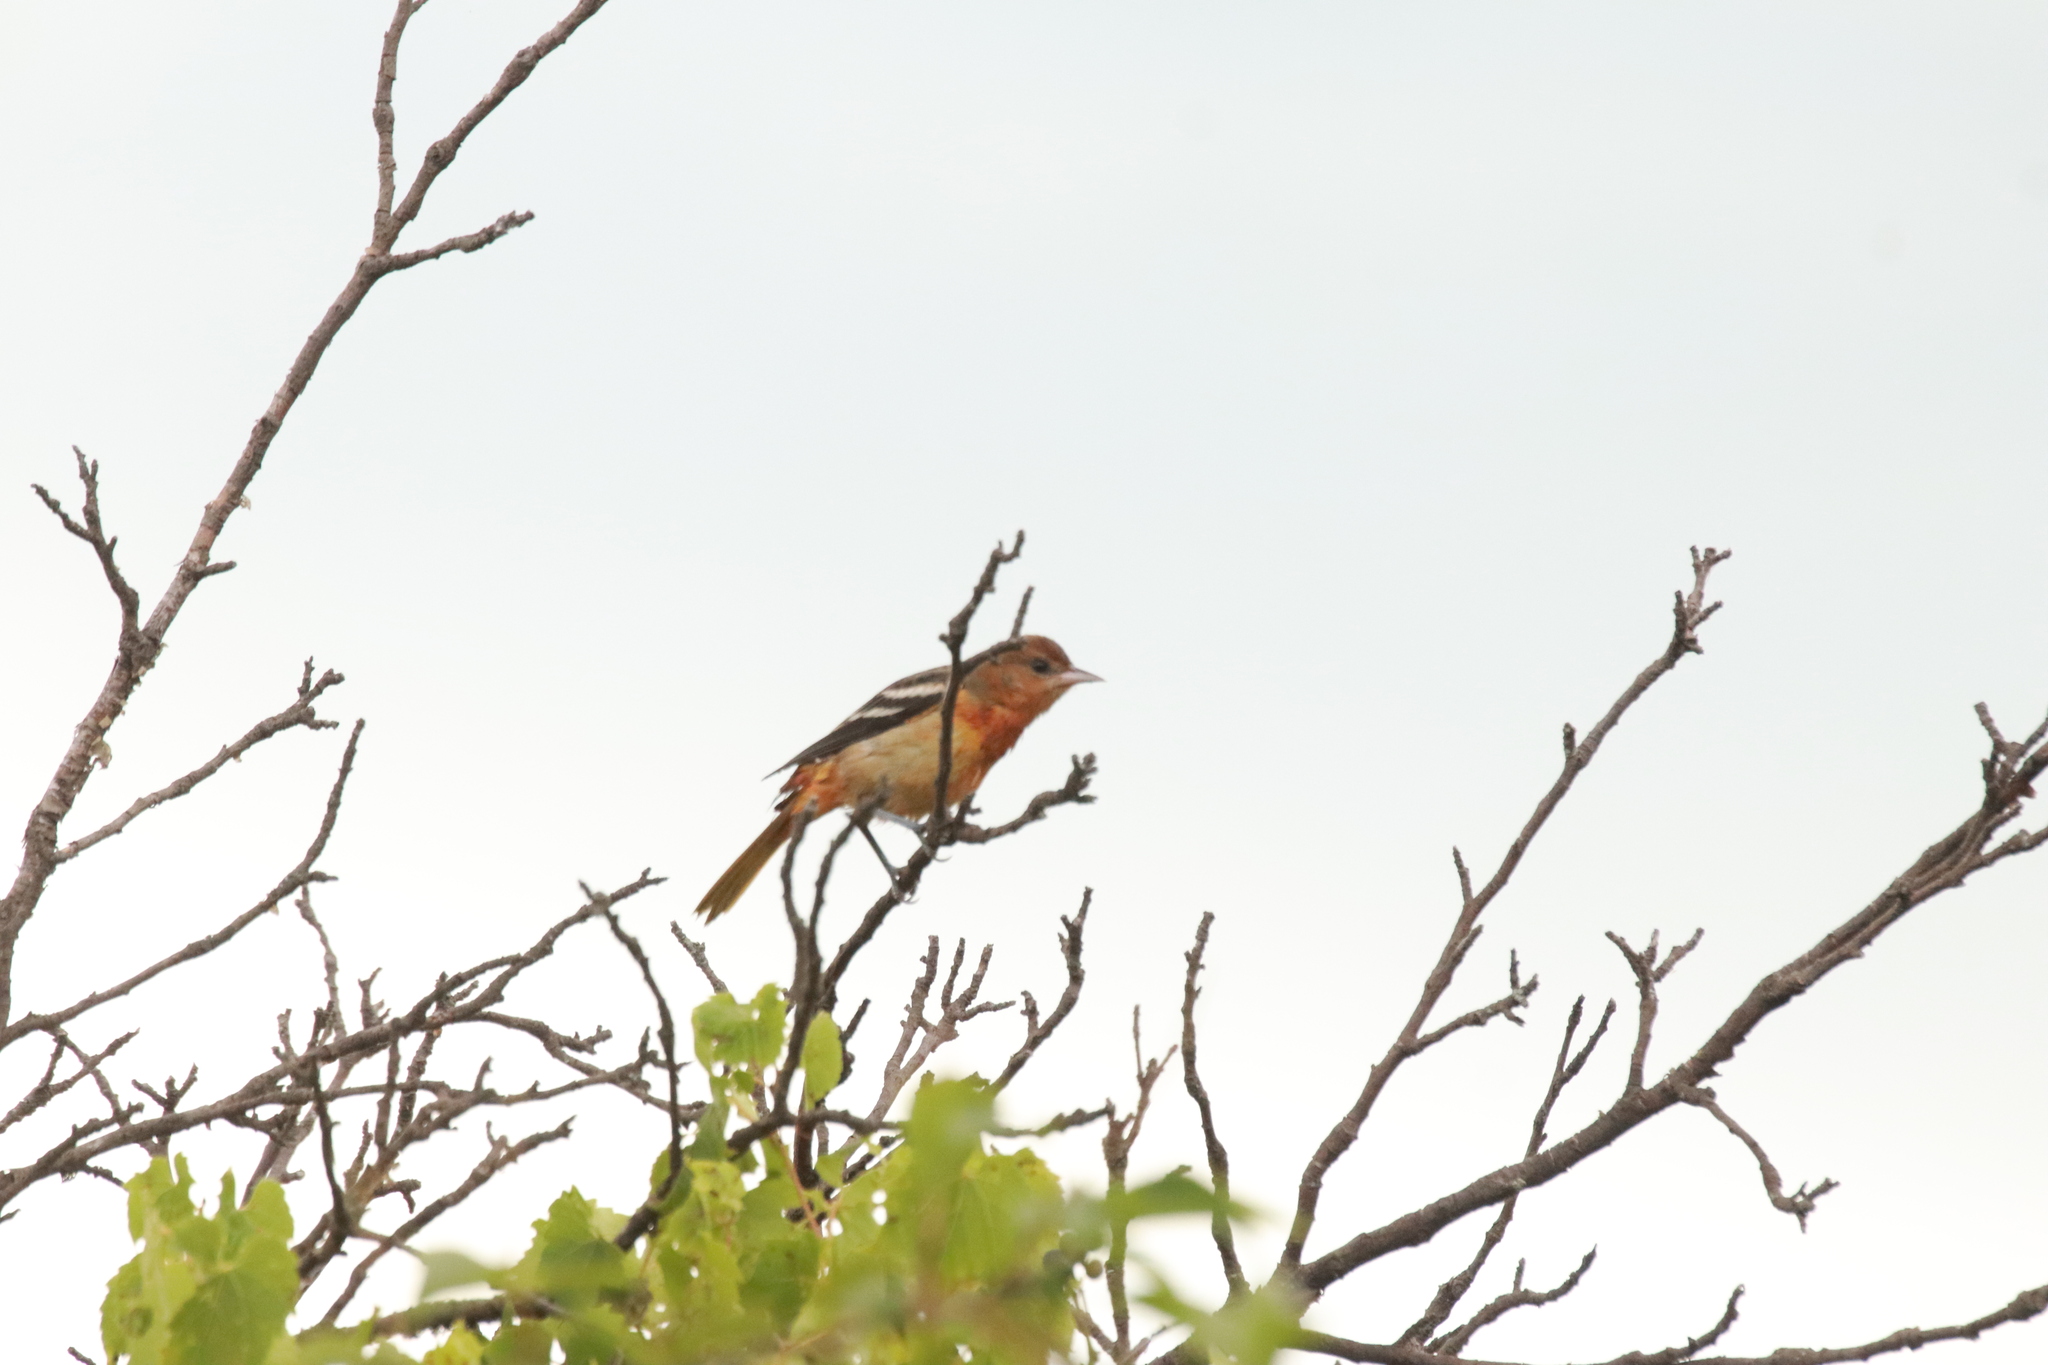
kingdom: Animalia
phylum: Chordata
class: Aves
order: Passeriformes
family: Icteridae
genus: Icterus
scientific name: Icterus galbula
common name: Baltimore oriole
